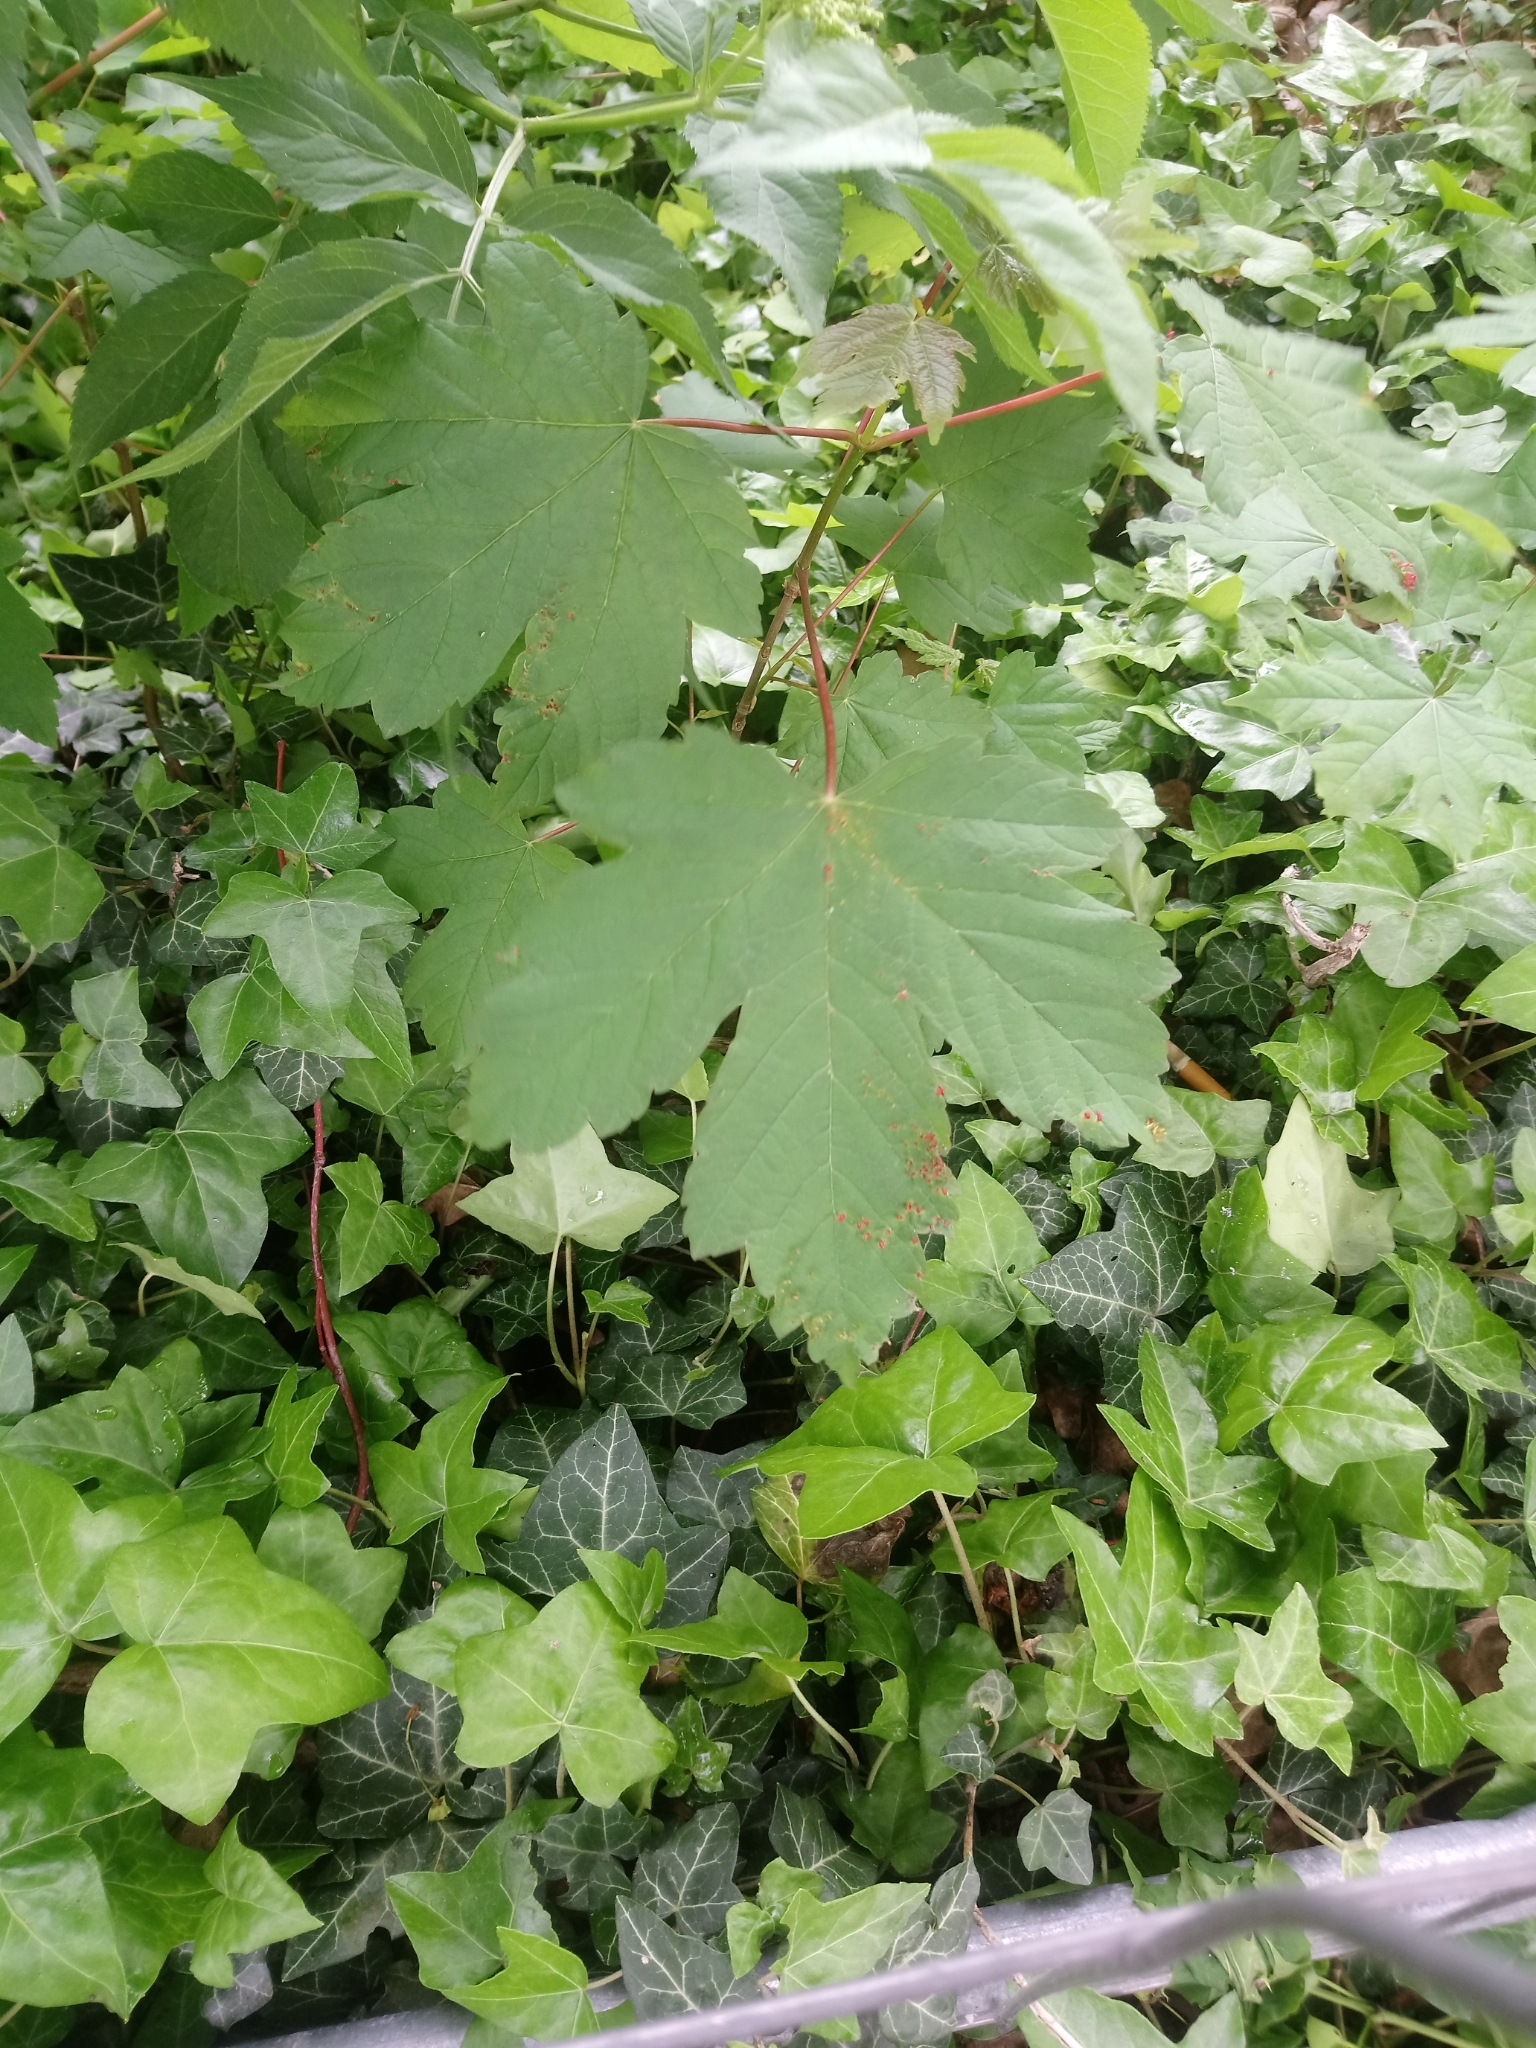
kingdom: Plantae
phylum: Tracheophyta
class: Magnoliopsida
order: Sapindales
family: Sapindaceae
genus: Acer
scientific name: Acer pseudoplatanus
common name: Sycamore
